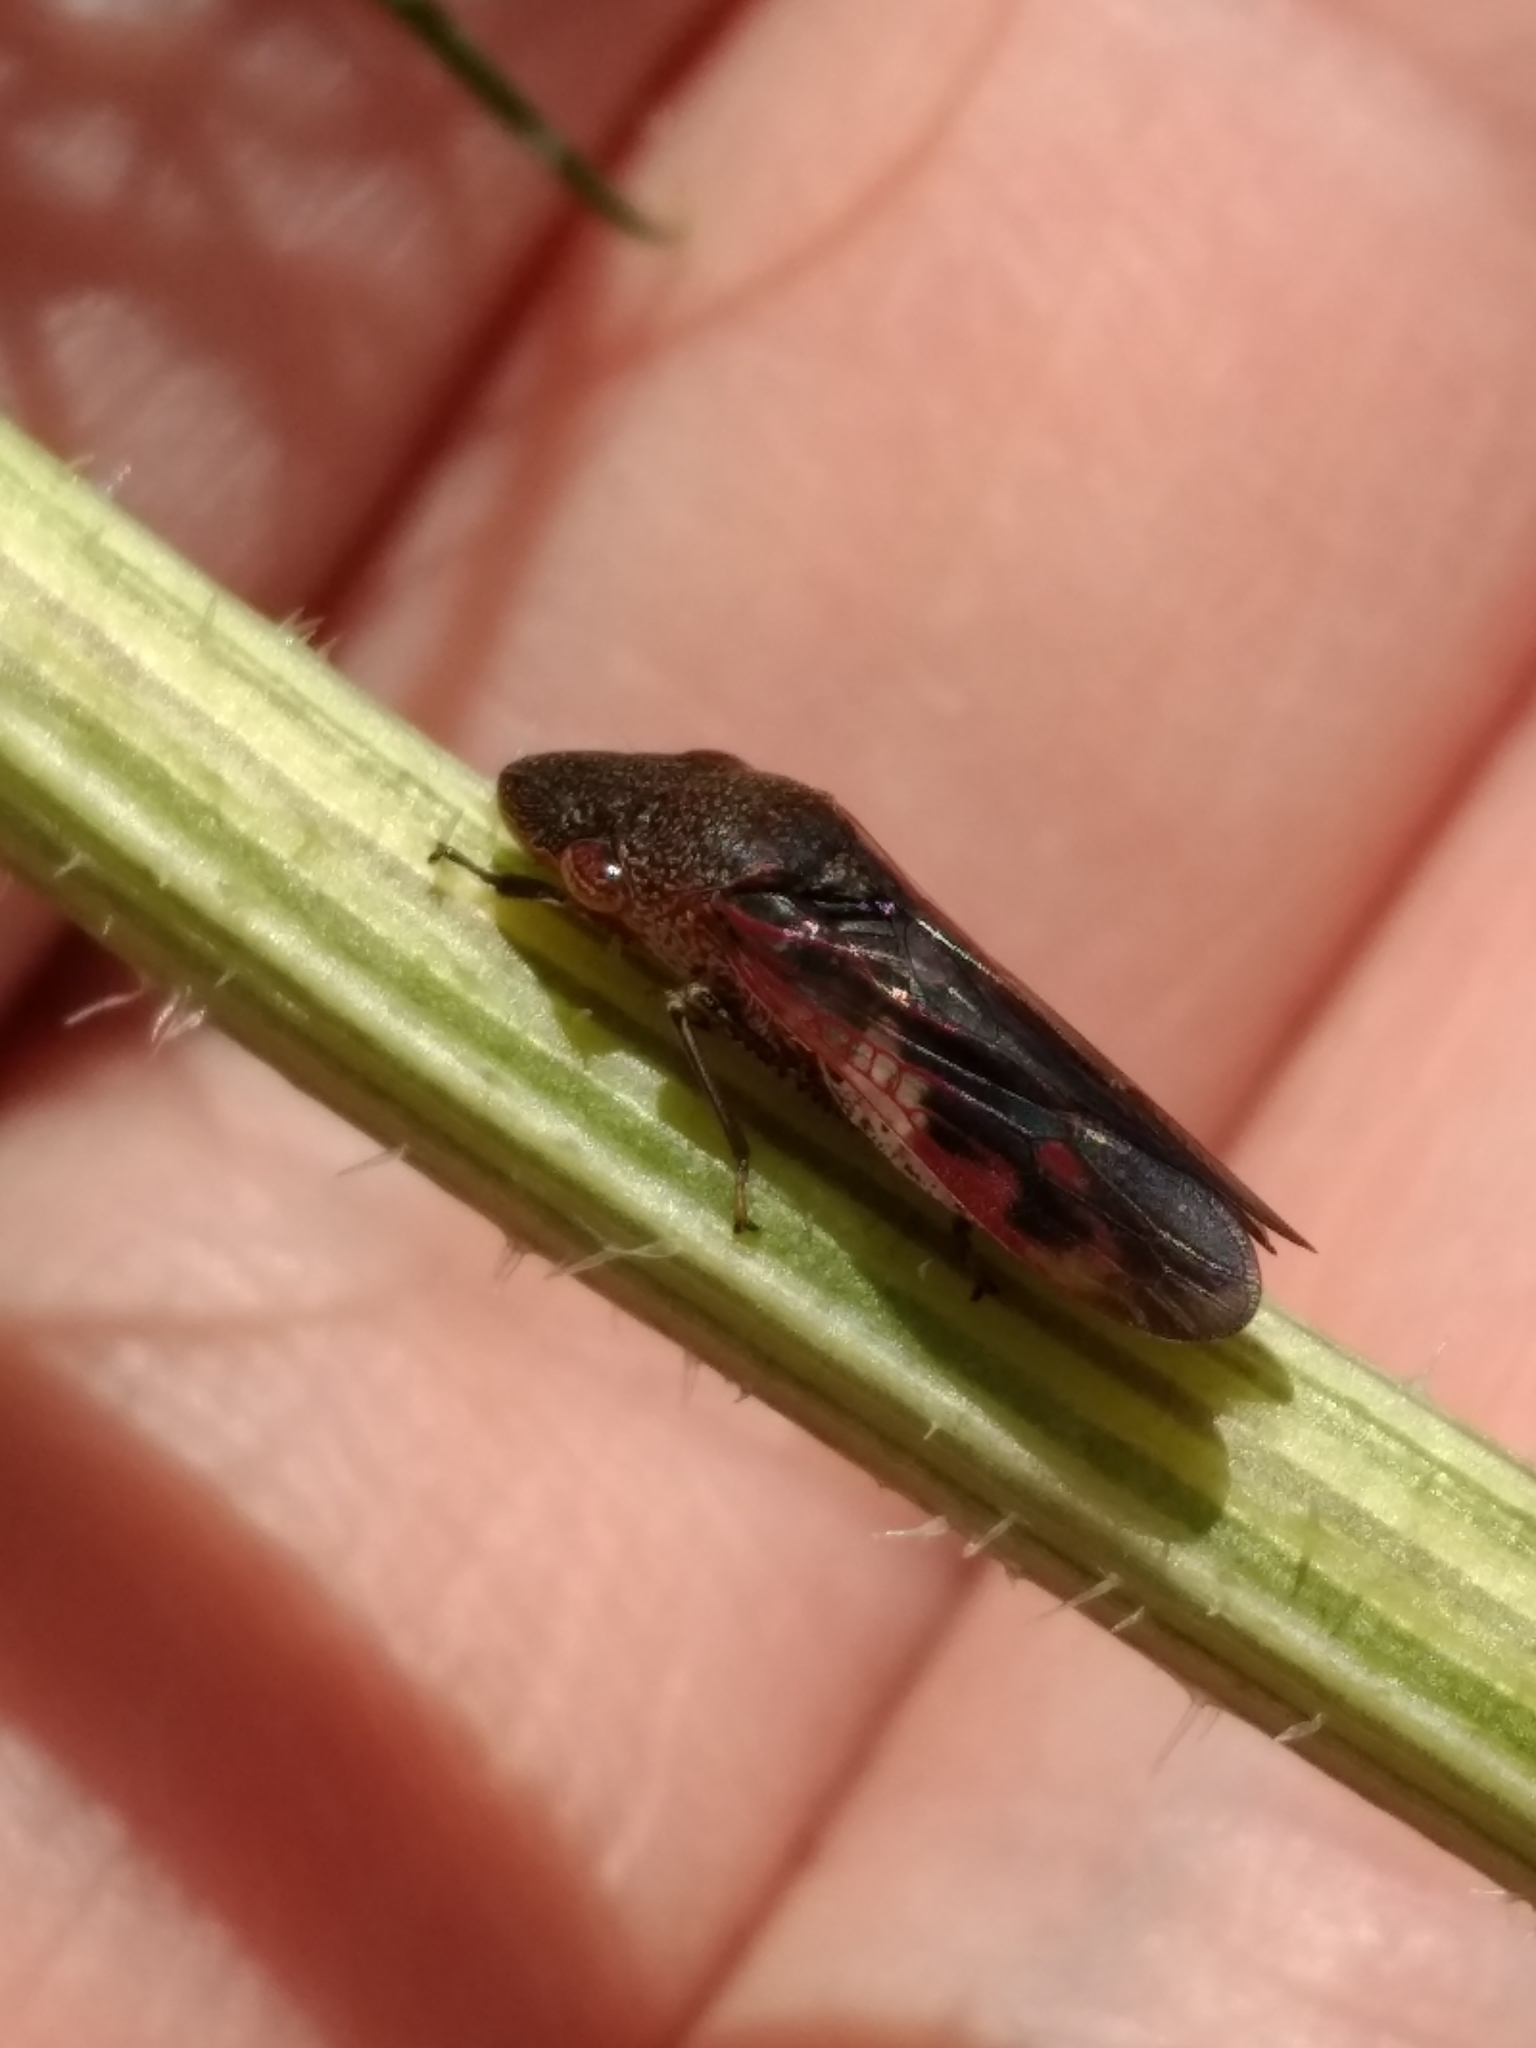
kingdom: Animalia
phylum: Arthropoda
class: Insecta
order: Hemiptera
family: Cicadellidae
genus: Homalodisca
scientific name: Homalodisca vitripennis
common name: Glassy-winged sharpshooter
